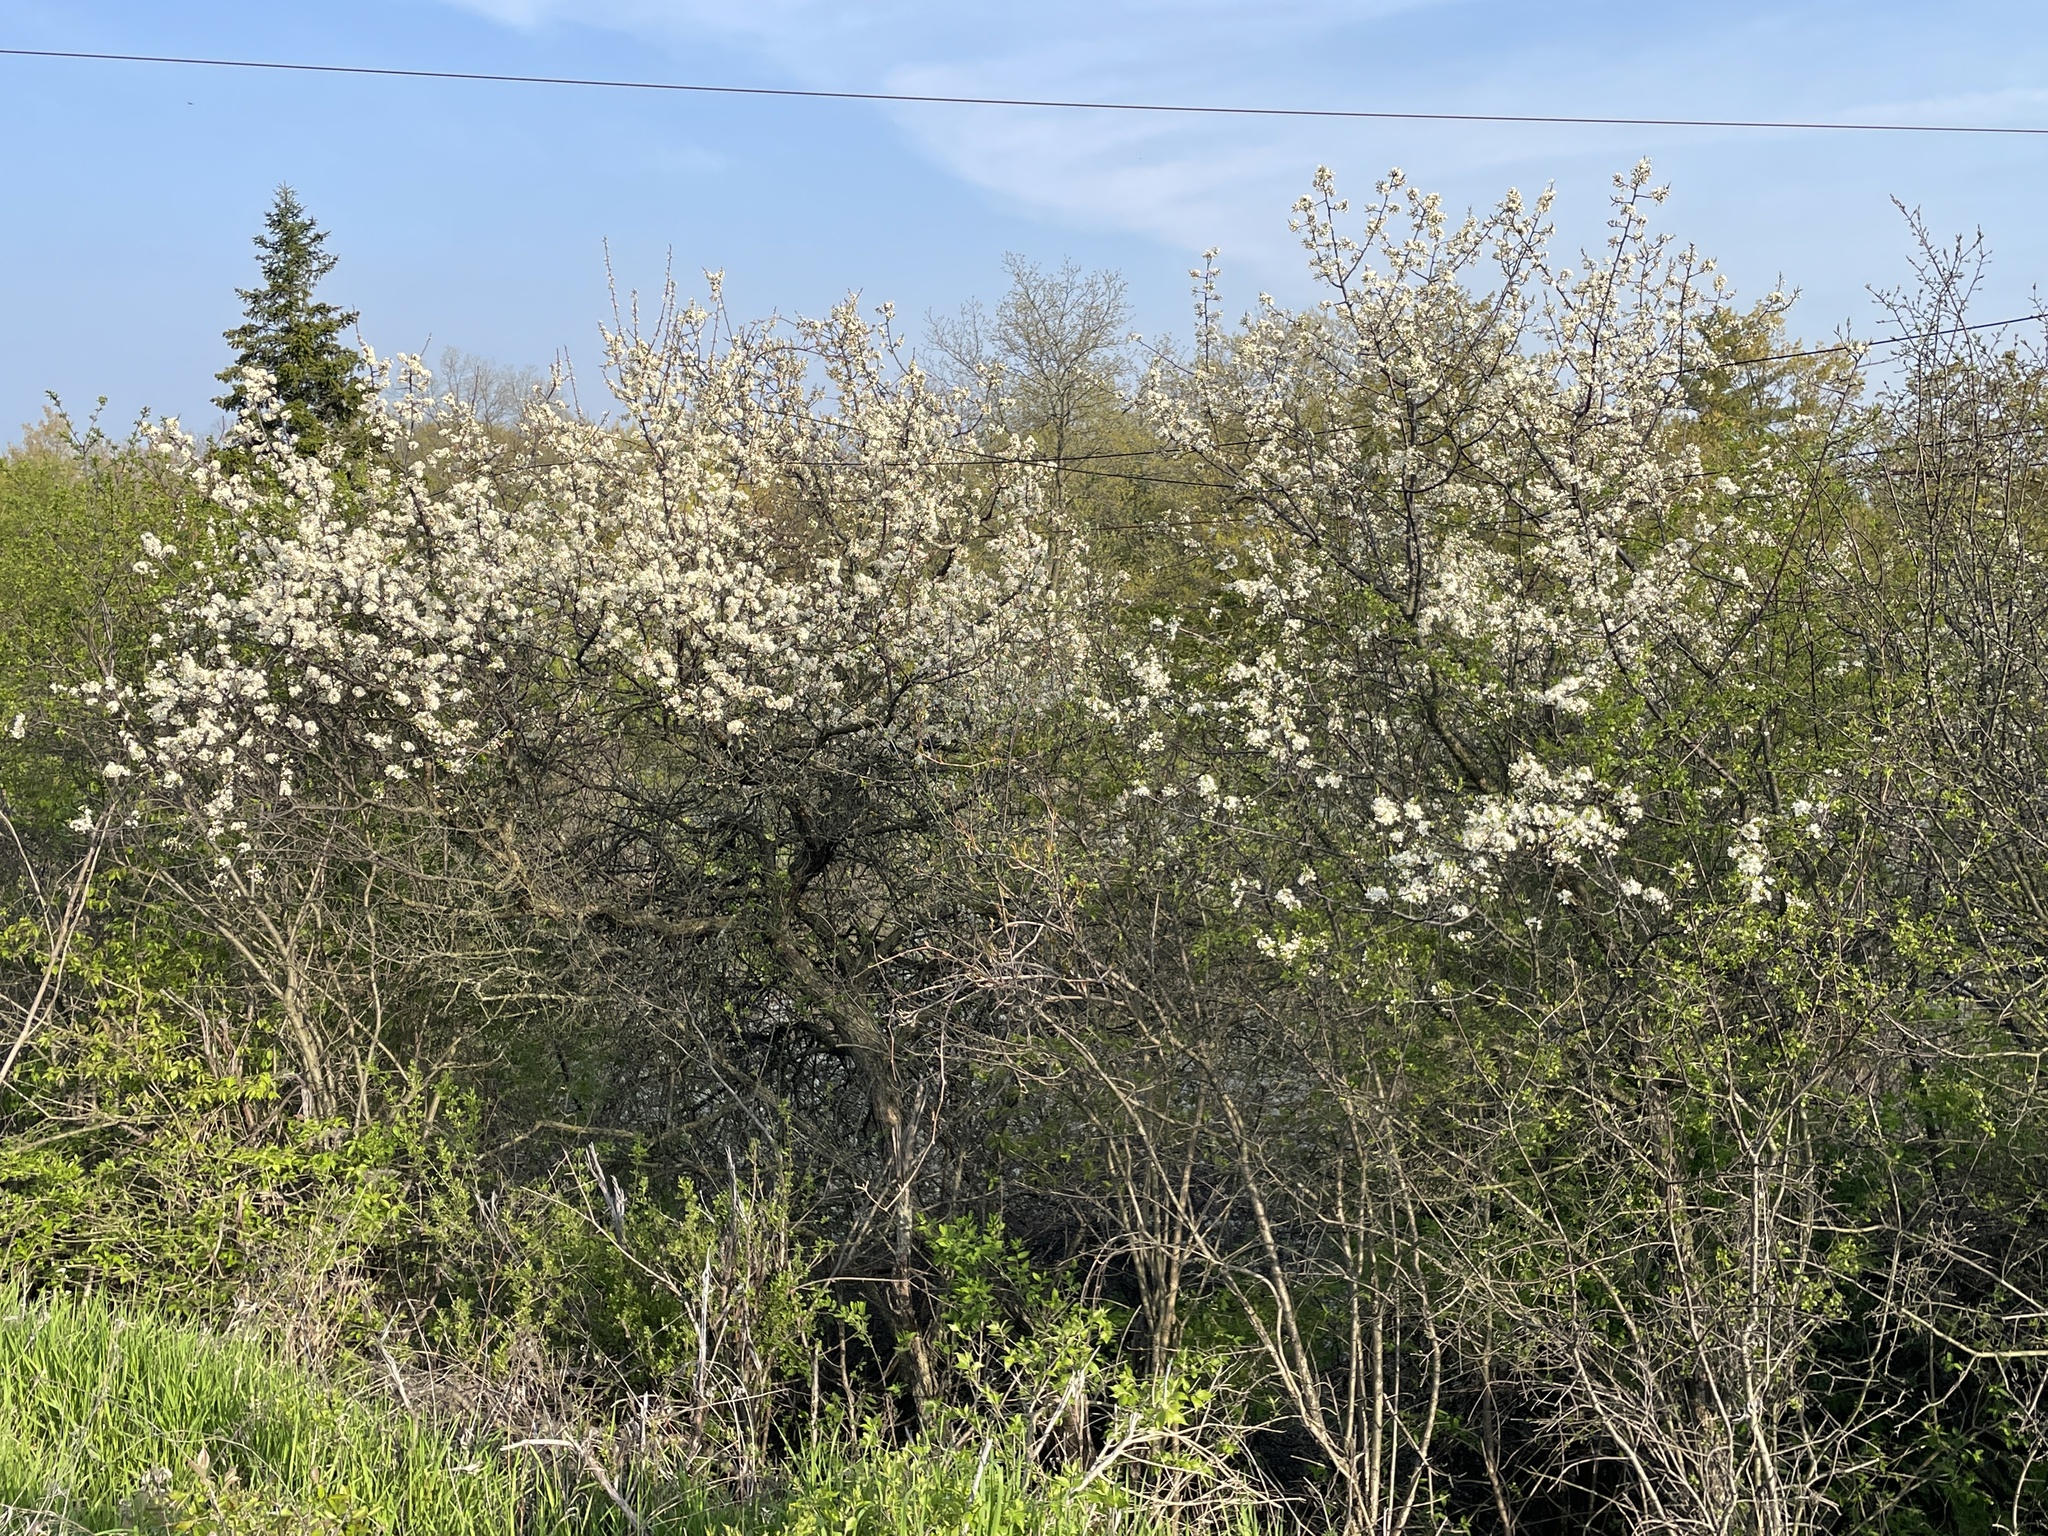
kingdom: Plantae
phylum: Tracheophyta
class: Magnoliopsida
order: Rosales
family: Rosaceae
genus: Prunus
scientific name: Prunus americana
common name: American plum
